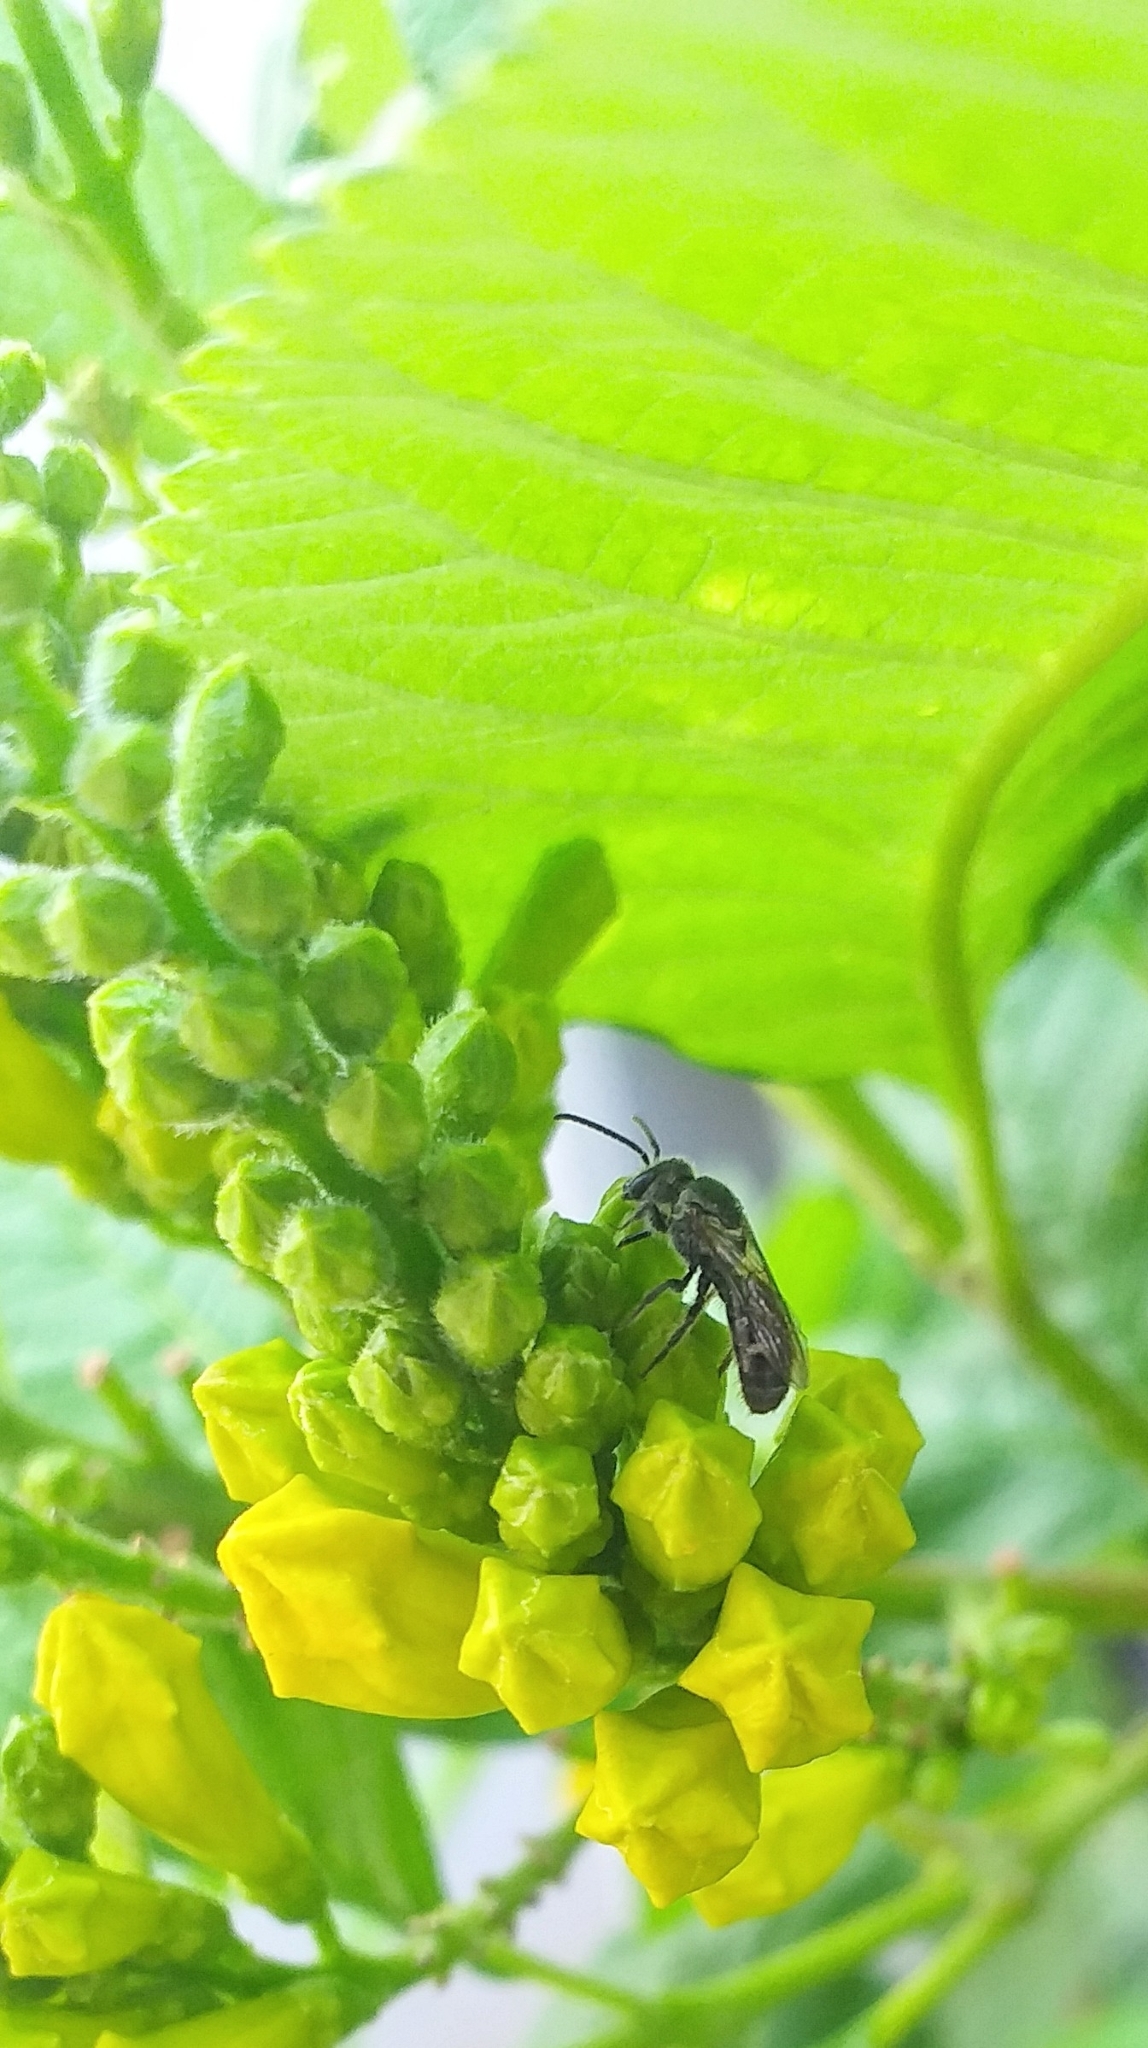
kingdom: Animalia
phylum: Arthropoda
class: Insecta
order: Hymenoptera
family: Halictidae
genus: Lasioglossum
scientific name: Lasioglossum albescens
